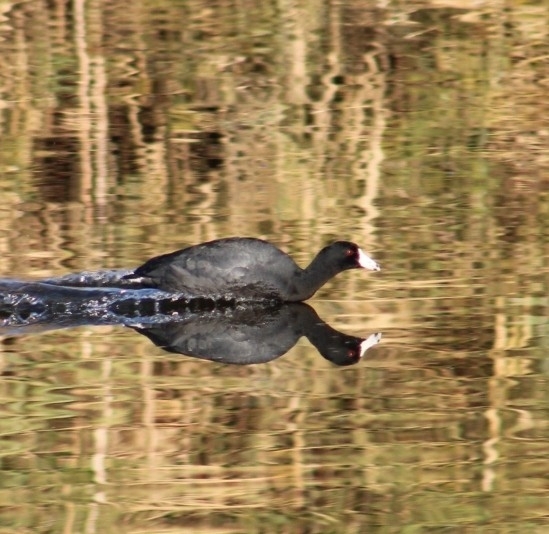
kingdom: Animalia
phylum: Chordata
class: Aves
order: Gruiformes
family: Rallidae
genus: Fulica
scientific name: Fulica americana
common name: American coot
